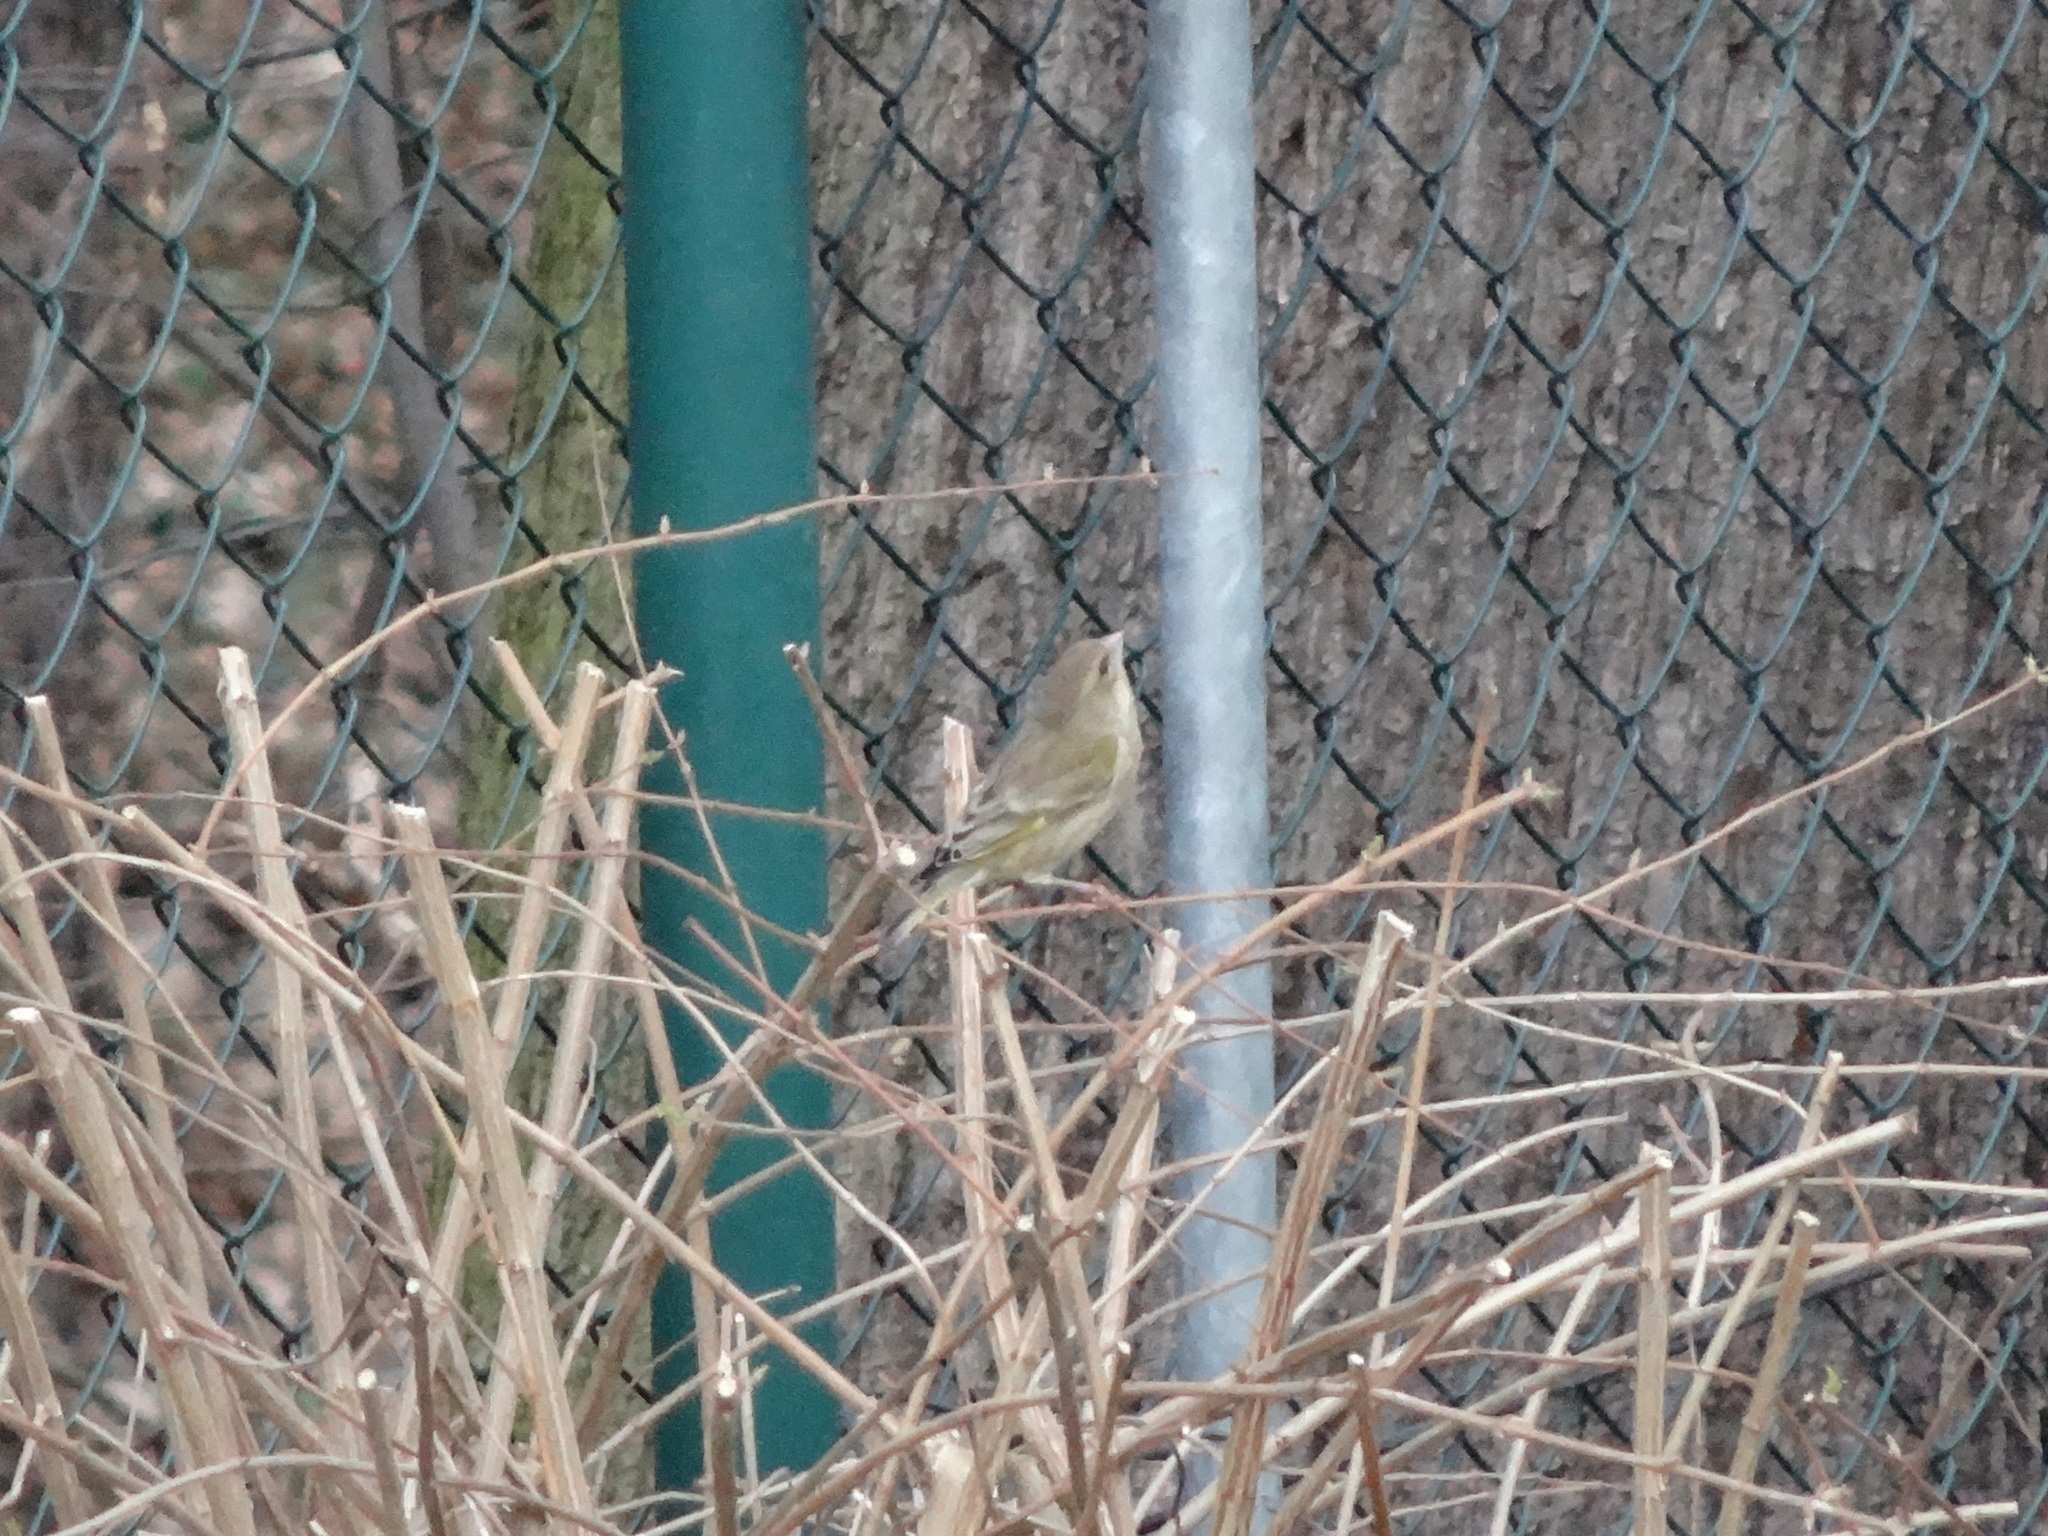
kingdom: Plantae
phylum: Tracheophyta
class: Liliopsida
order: Poales
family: Poaceae
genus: Chloris
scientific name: Chloris chloris
